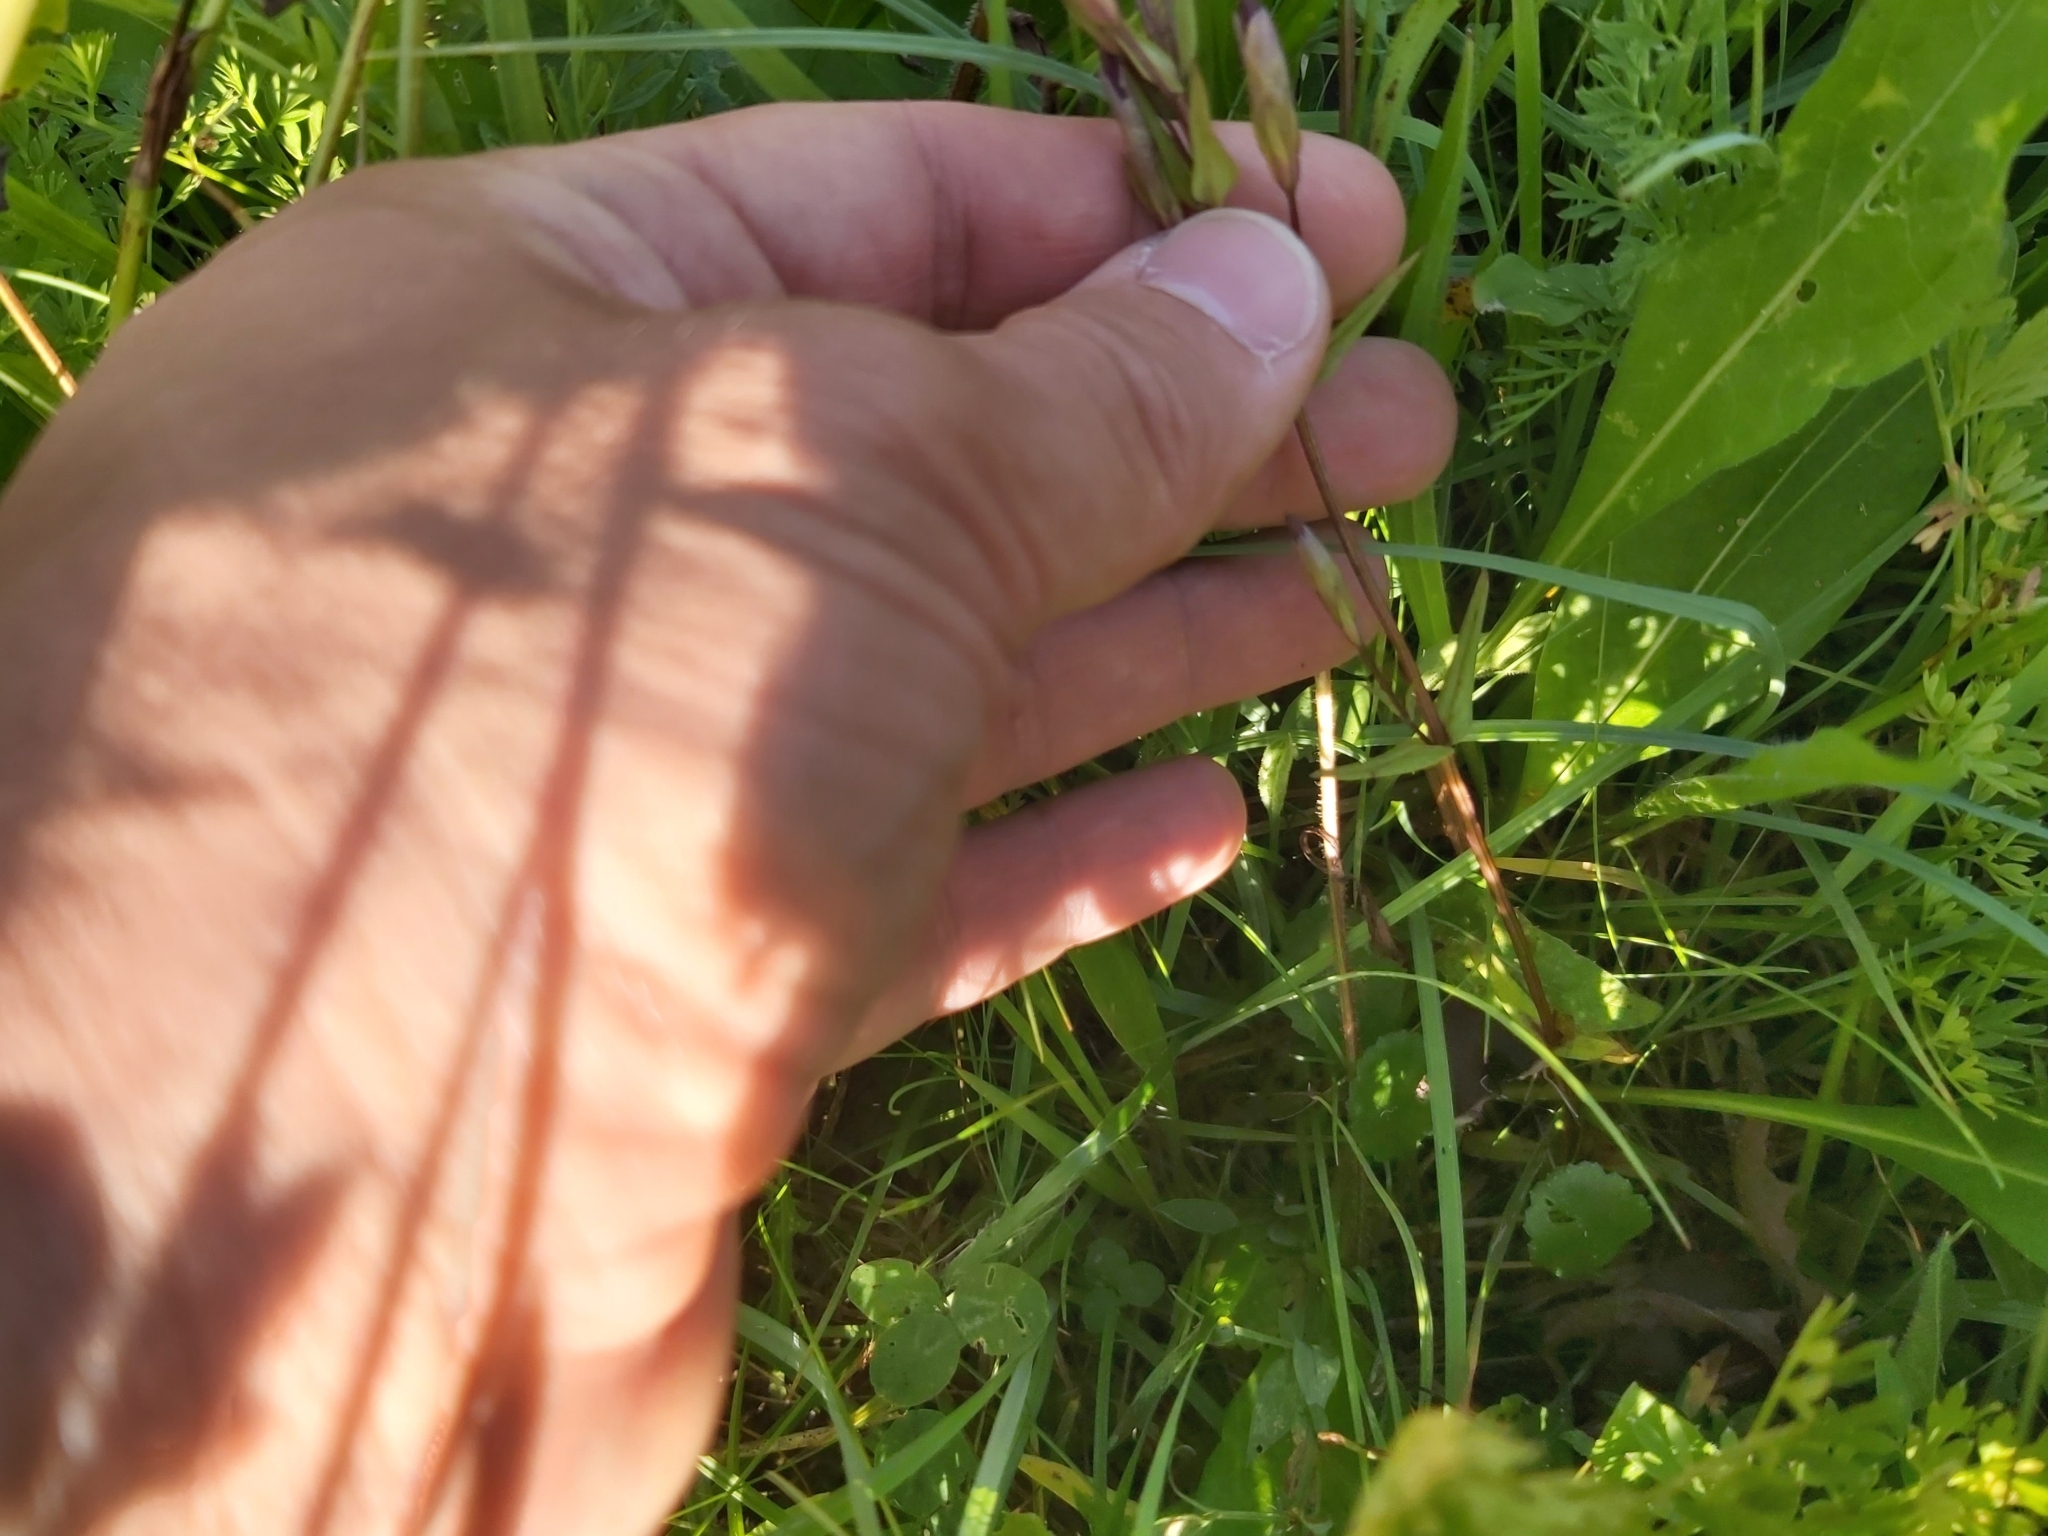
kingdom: Plantae
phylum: Tracheophyta
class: Magnoliopsida
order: Gentianales
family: Gentianaceae
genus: Gentianella
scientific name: Gentianella amarella
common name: Autumn gentian
